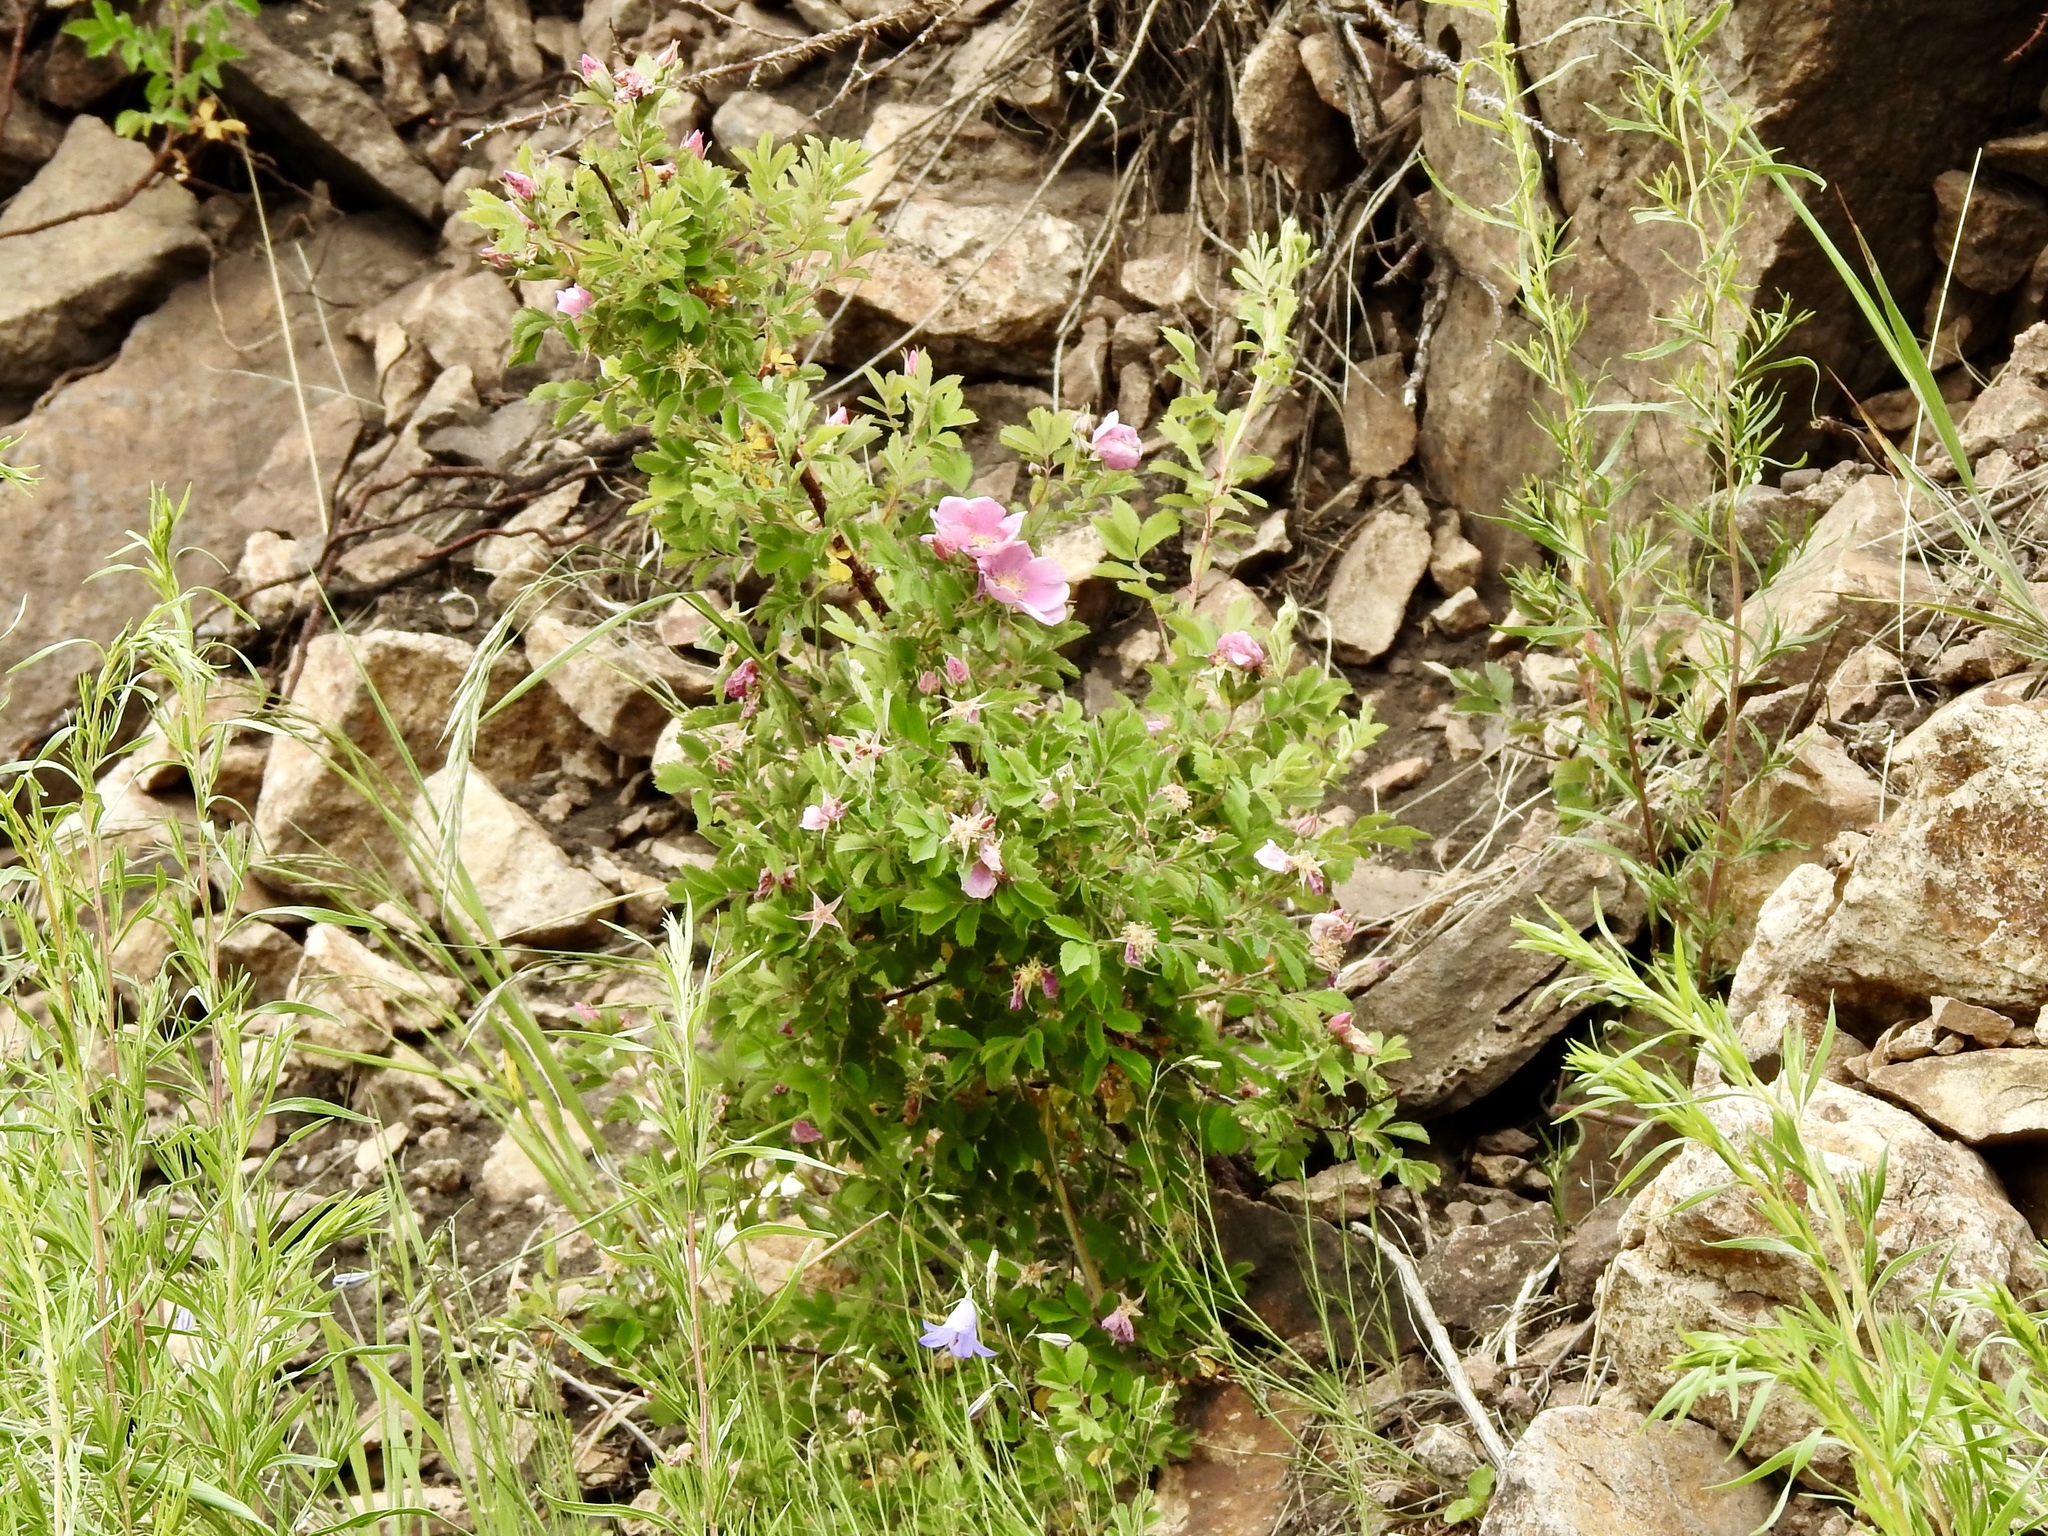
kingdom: Plantae
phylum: Tracheophyta
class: Magnoliopsida
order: Rosales
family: Rosaceae
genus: Rosa
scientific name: Rosa woodsii
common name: Woods's rose
